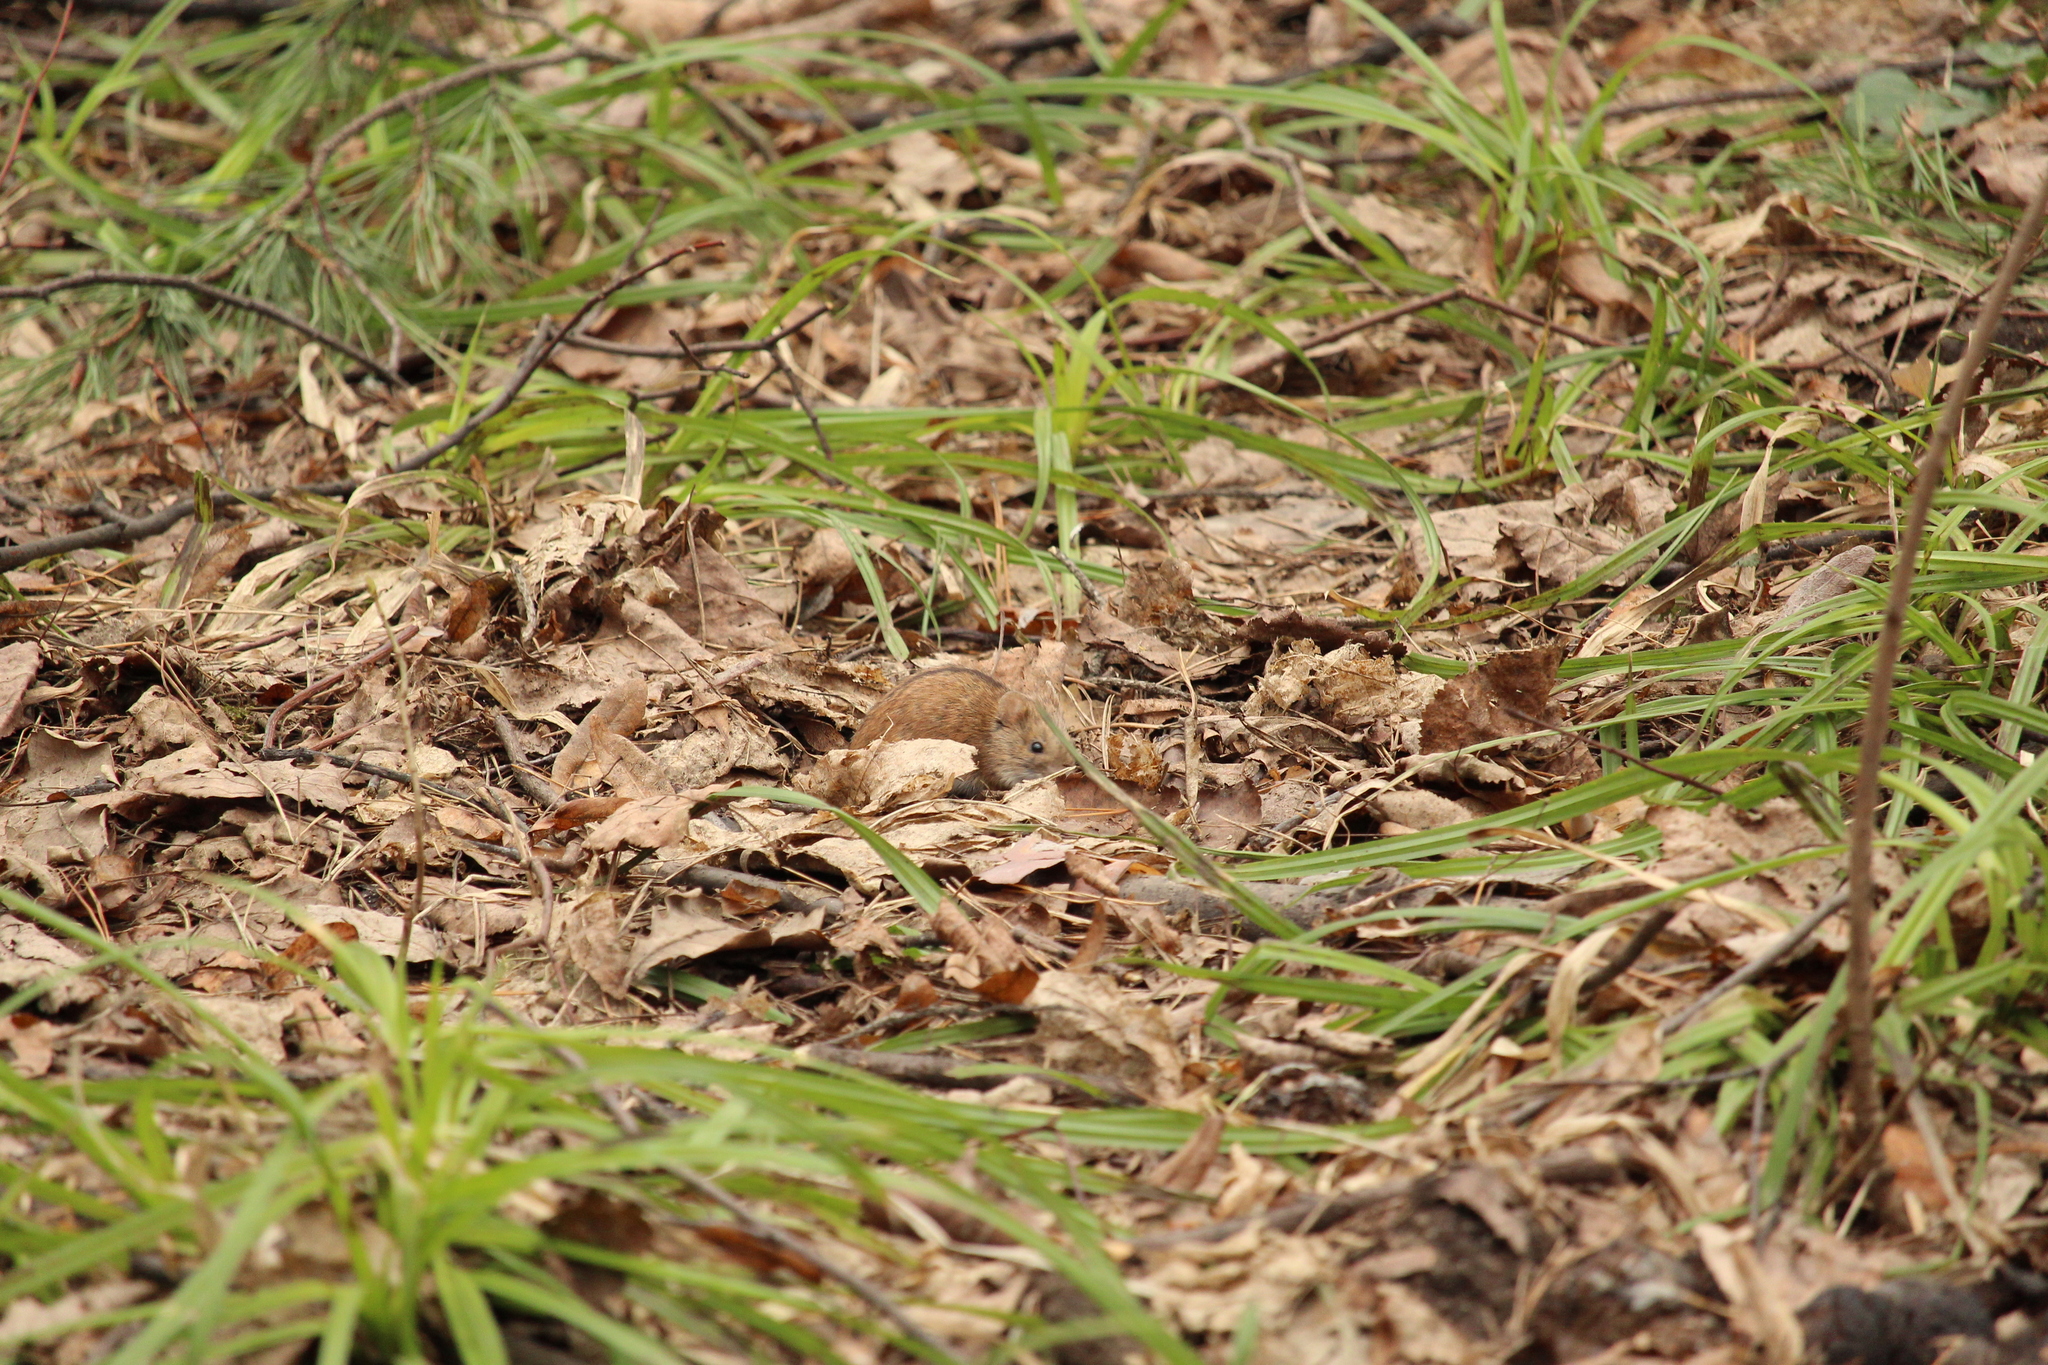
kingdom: Animalia
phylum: Chordata
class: Mammalia
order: Rodentia
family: Muridae
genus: Apodemus
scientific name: Apodemus agrarius
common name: Striped field mouse
